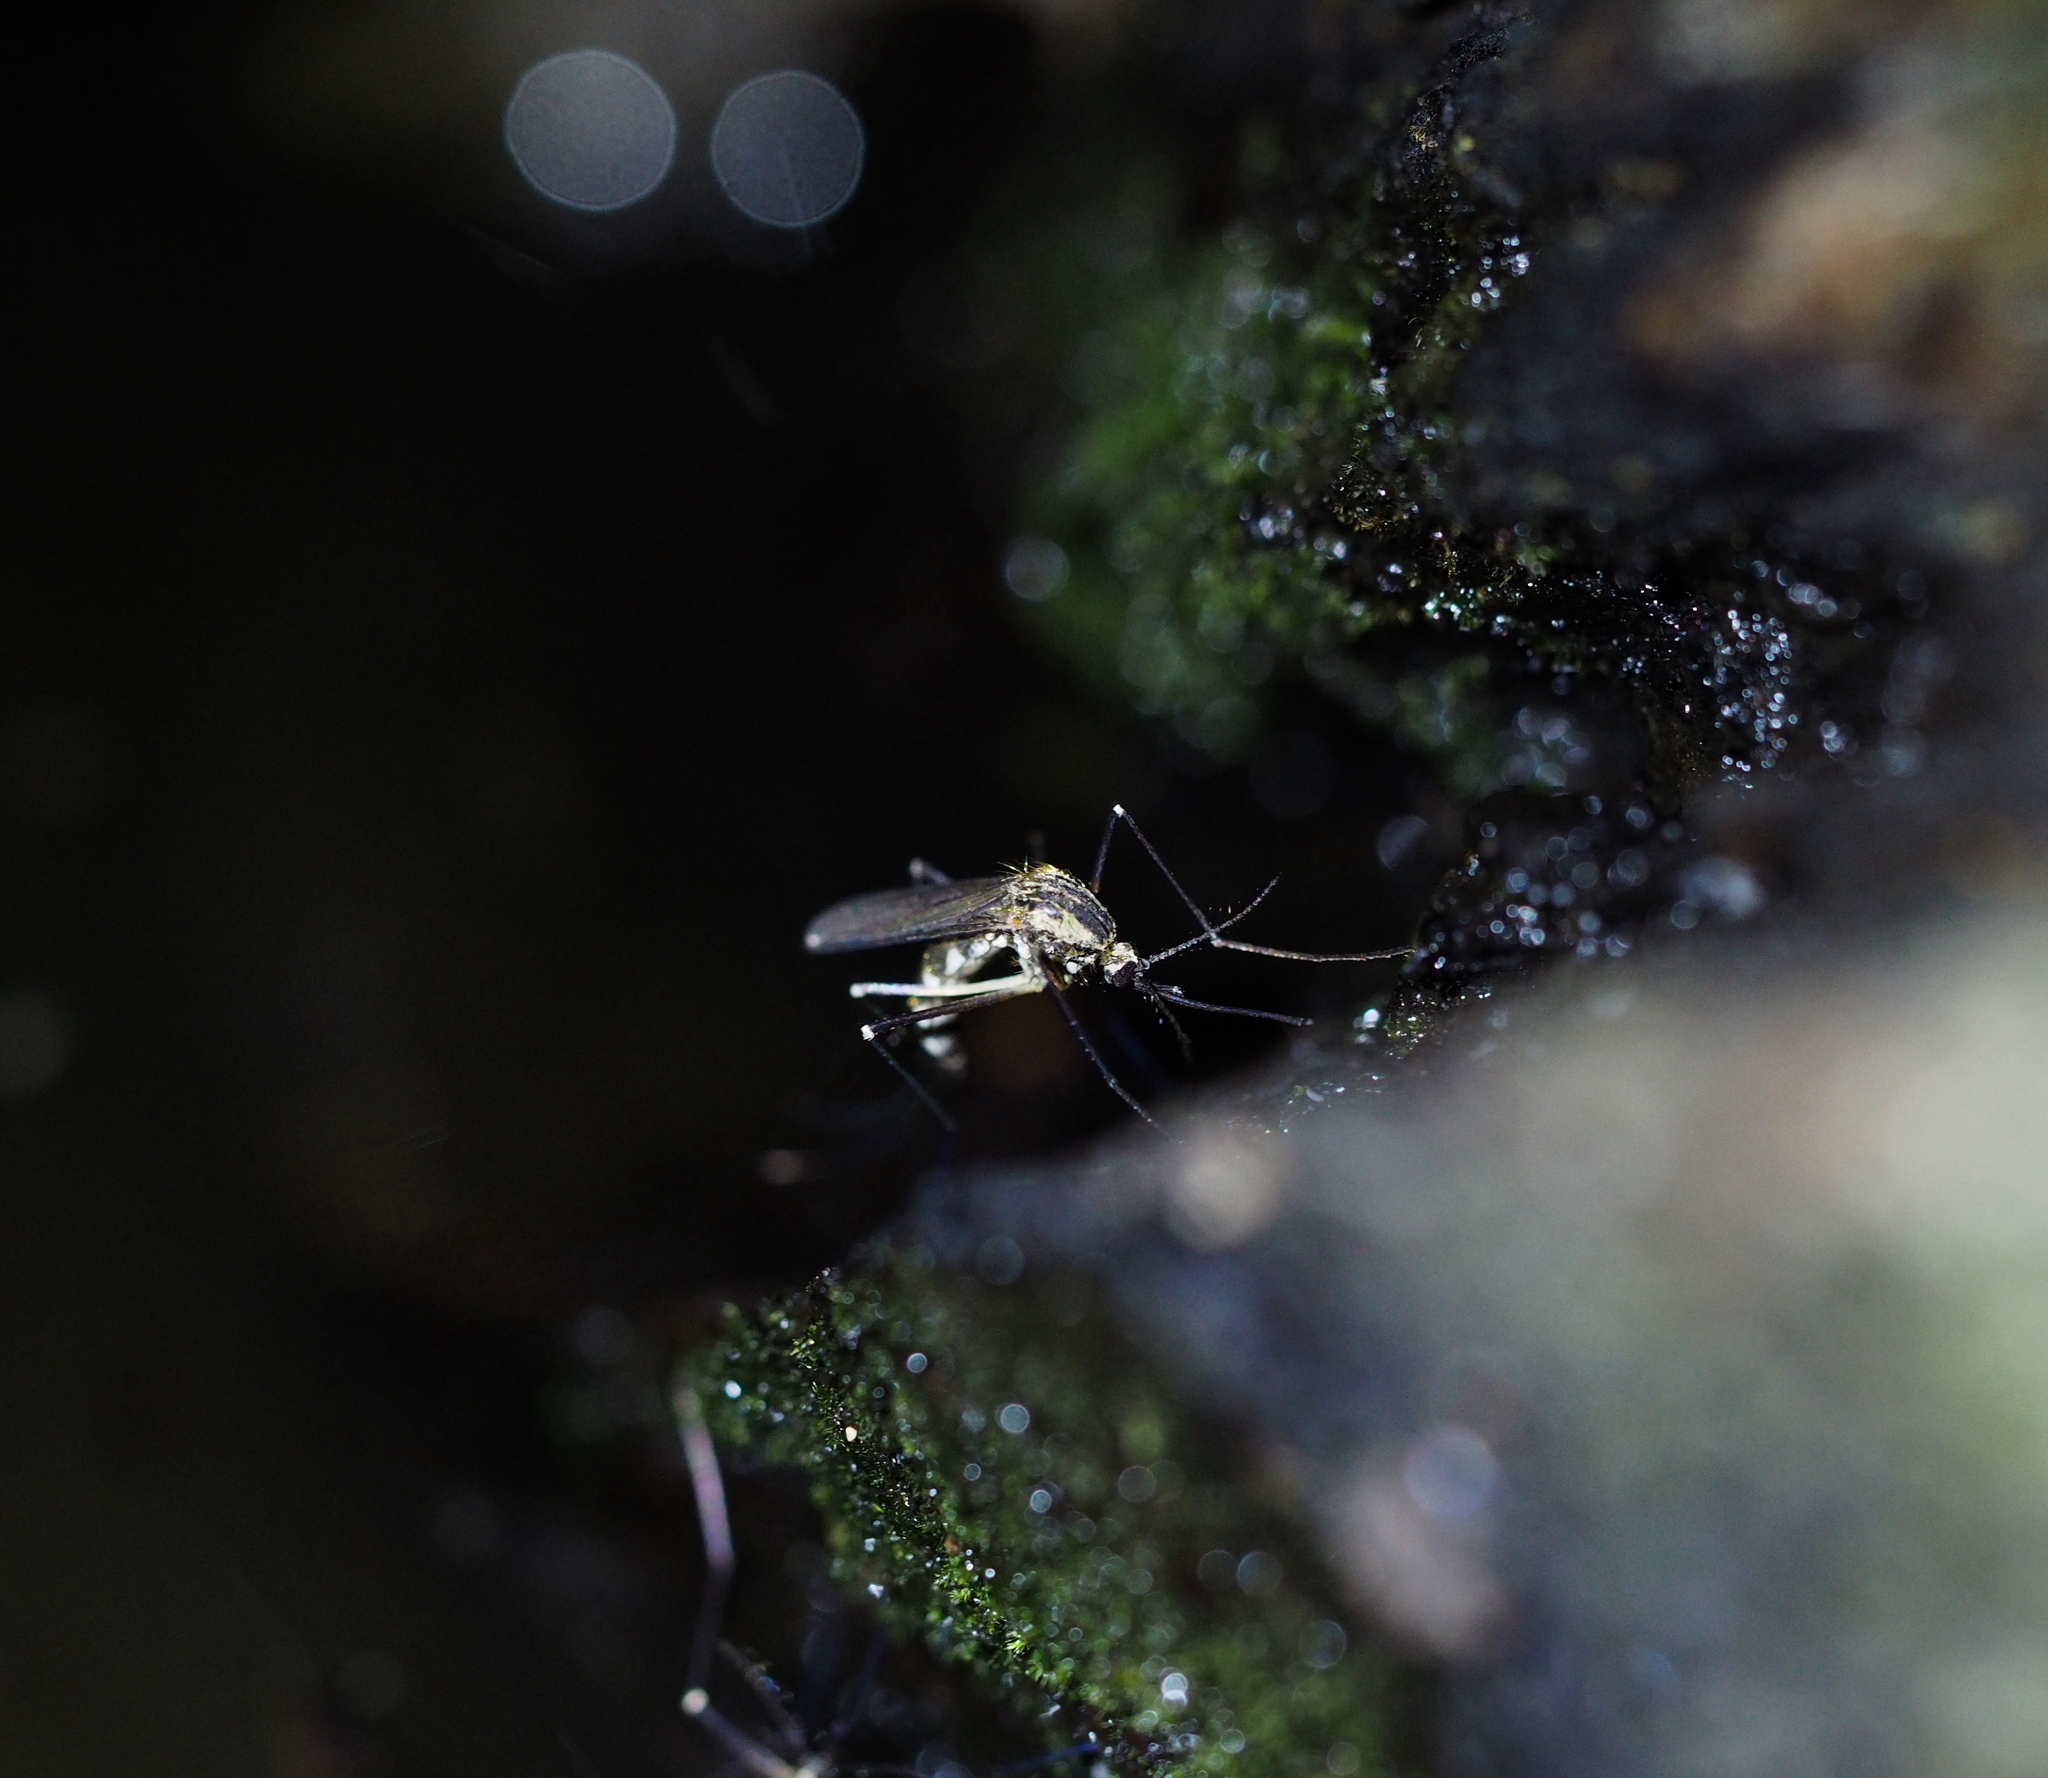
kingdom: Animalia
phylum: Arthropoda
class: Insecta
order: Diptera
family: Culicidae
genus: Aedes
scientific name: Aedes geniculatus
